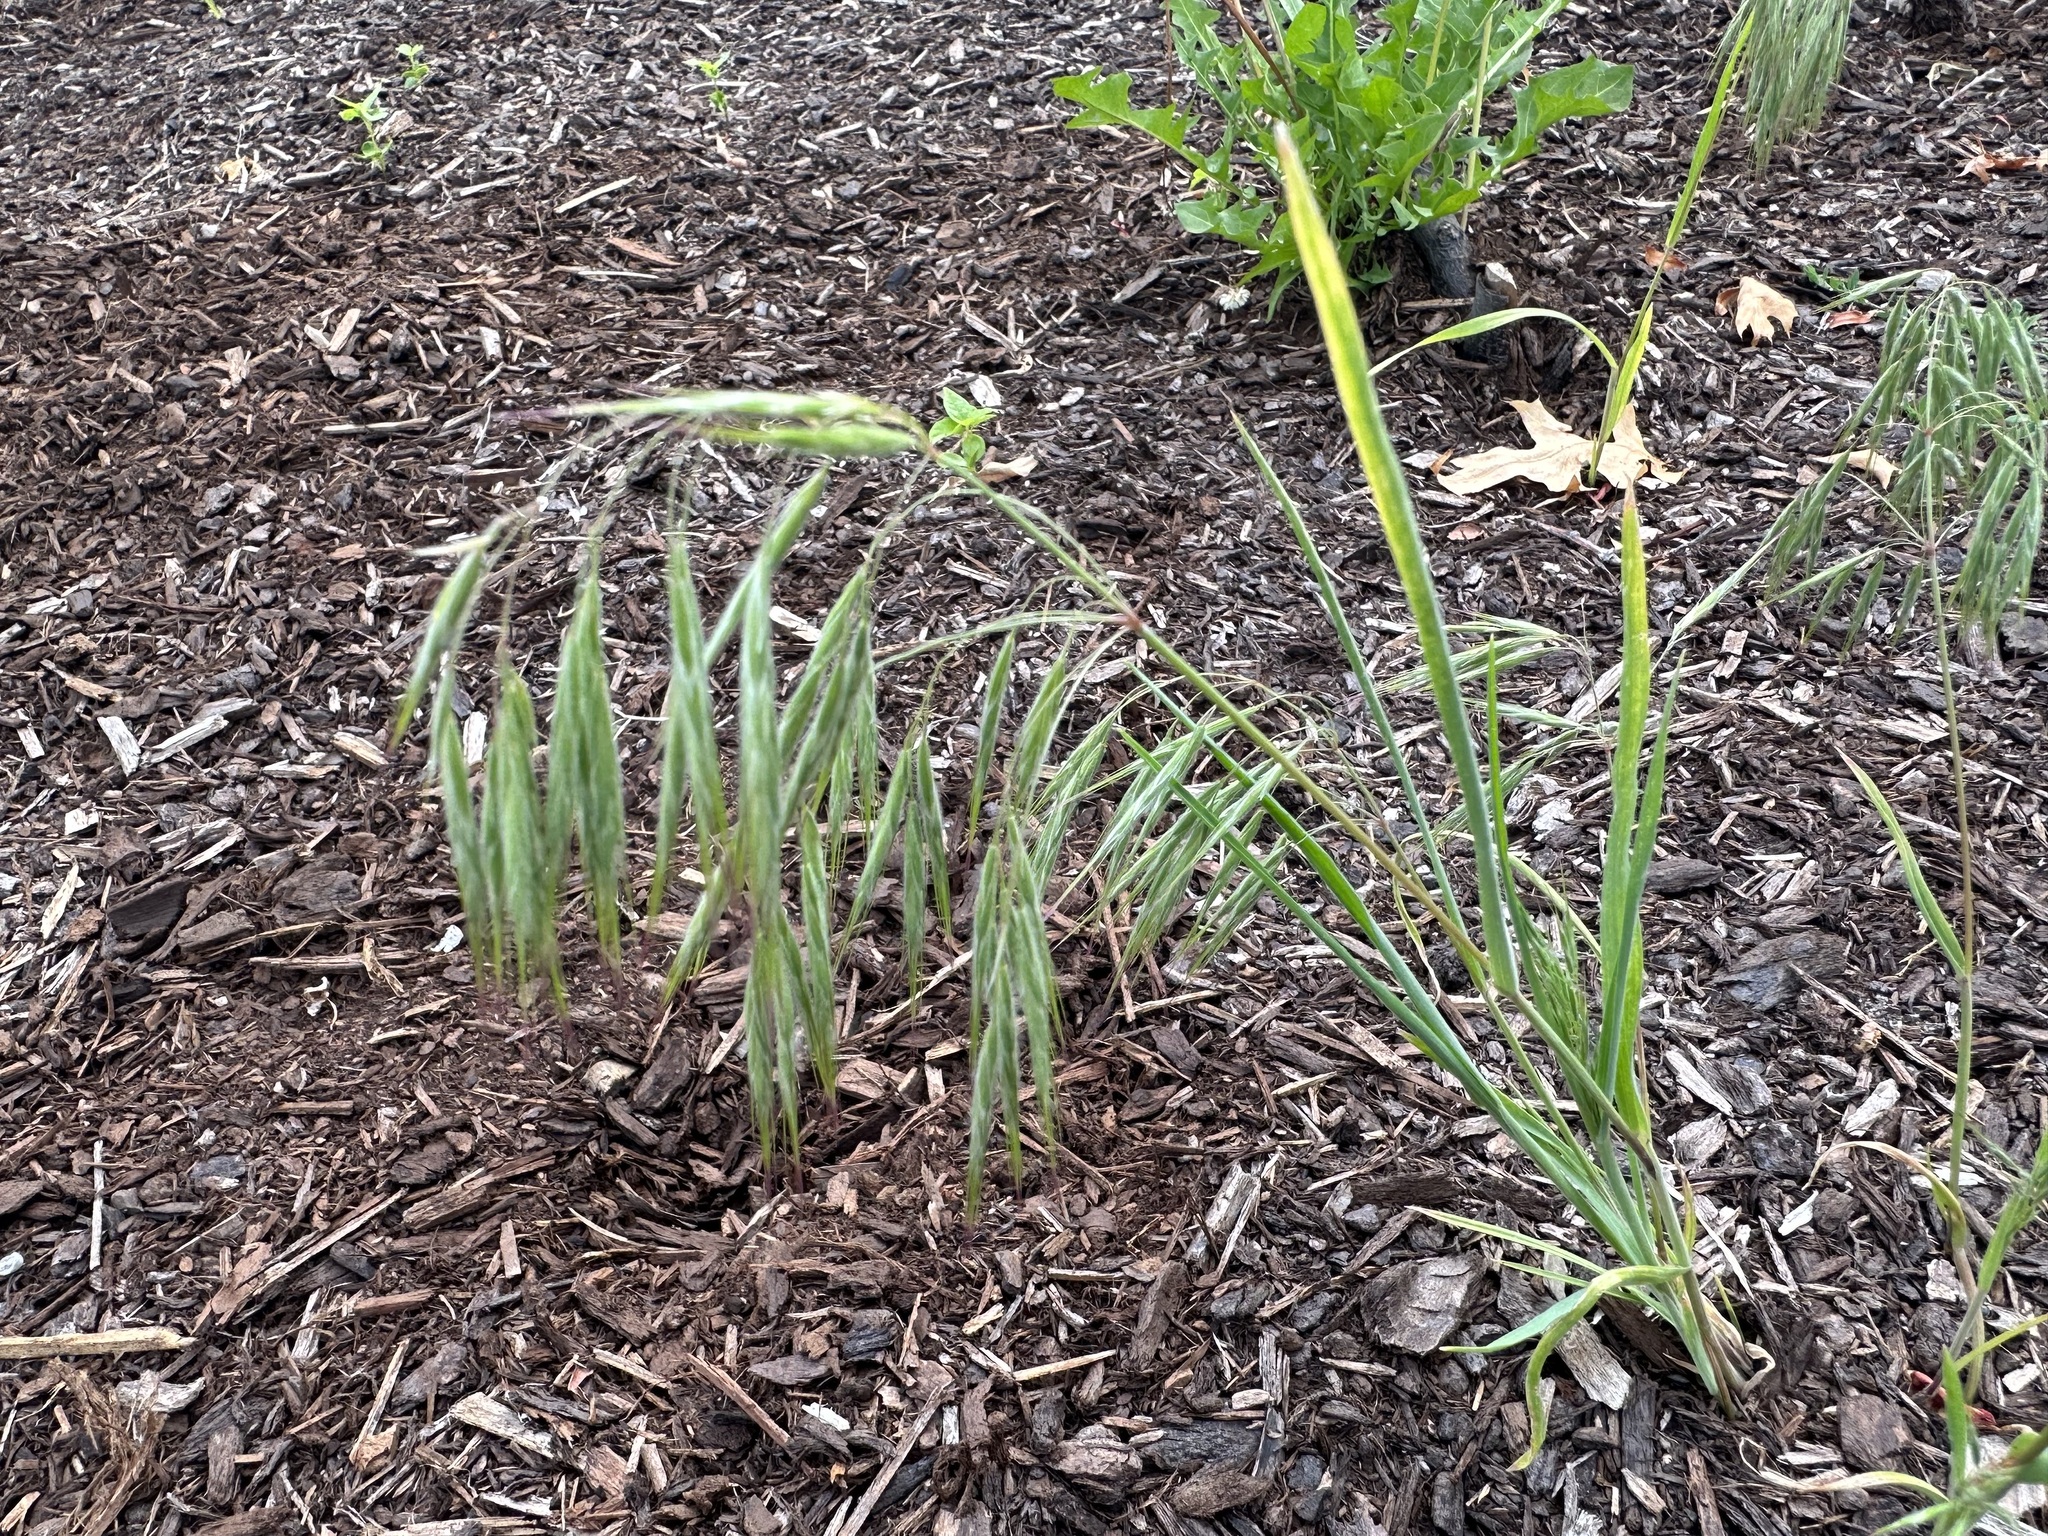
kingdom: Plantae
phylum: Tracheophyta
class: Liliopsida
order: Poales
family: Poaceae
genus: Bromus
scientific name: Bromus tectorum
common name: Cheatgrass
